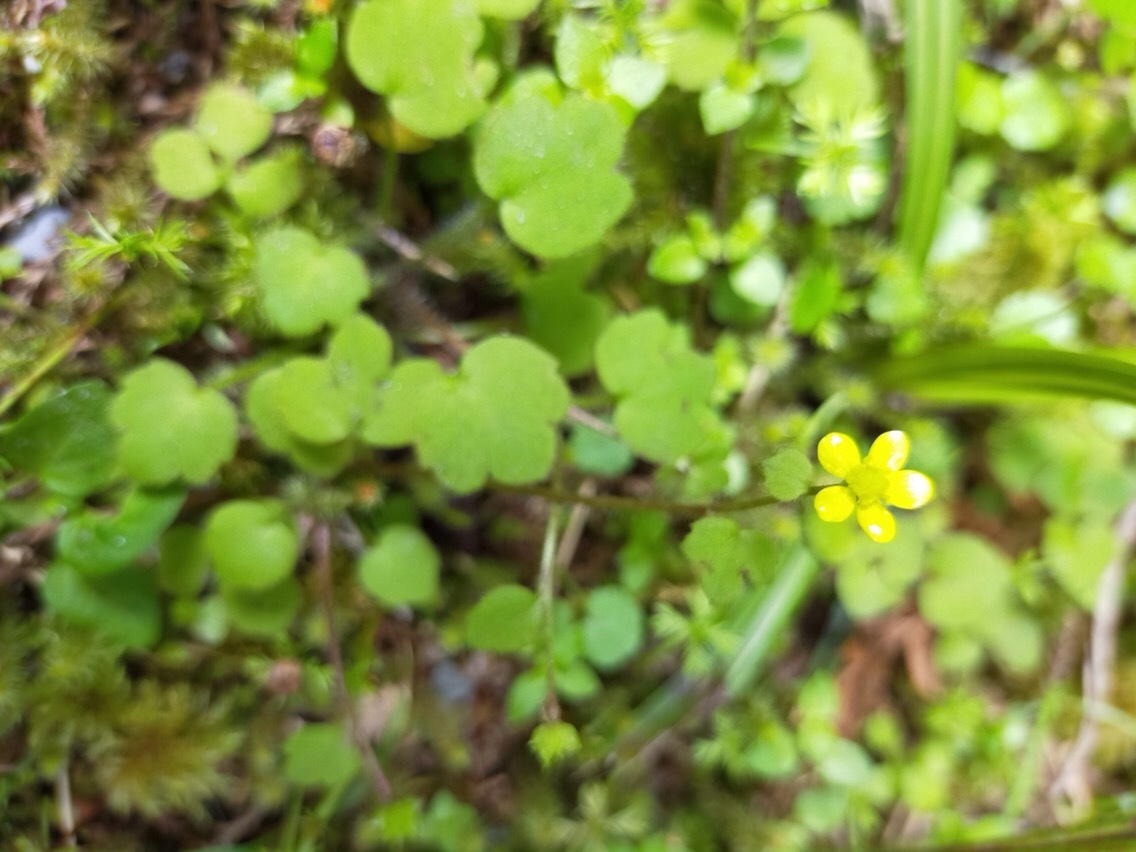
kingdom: Plantae
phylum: Tracheophyta
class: Magnoliopsida
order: Ranunculales
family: Ranunculaceae
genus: Ranunculus
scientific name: Ranunculus reflexus
